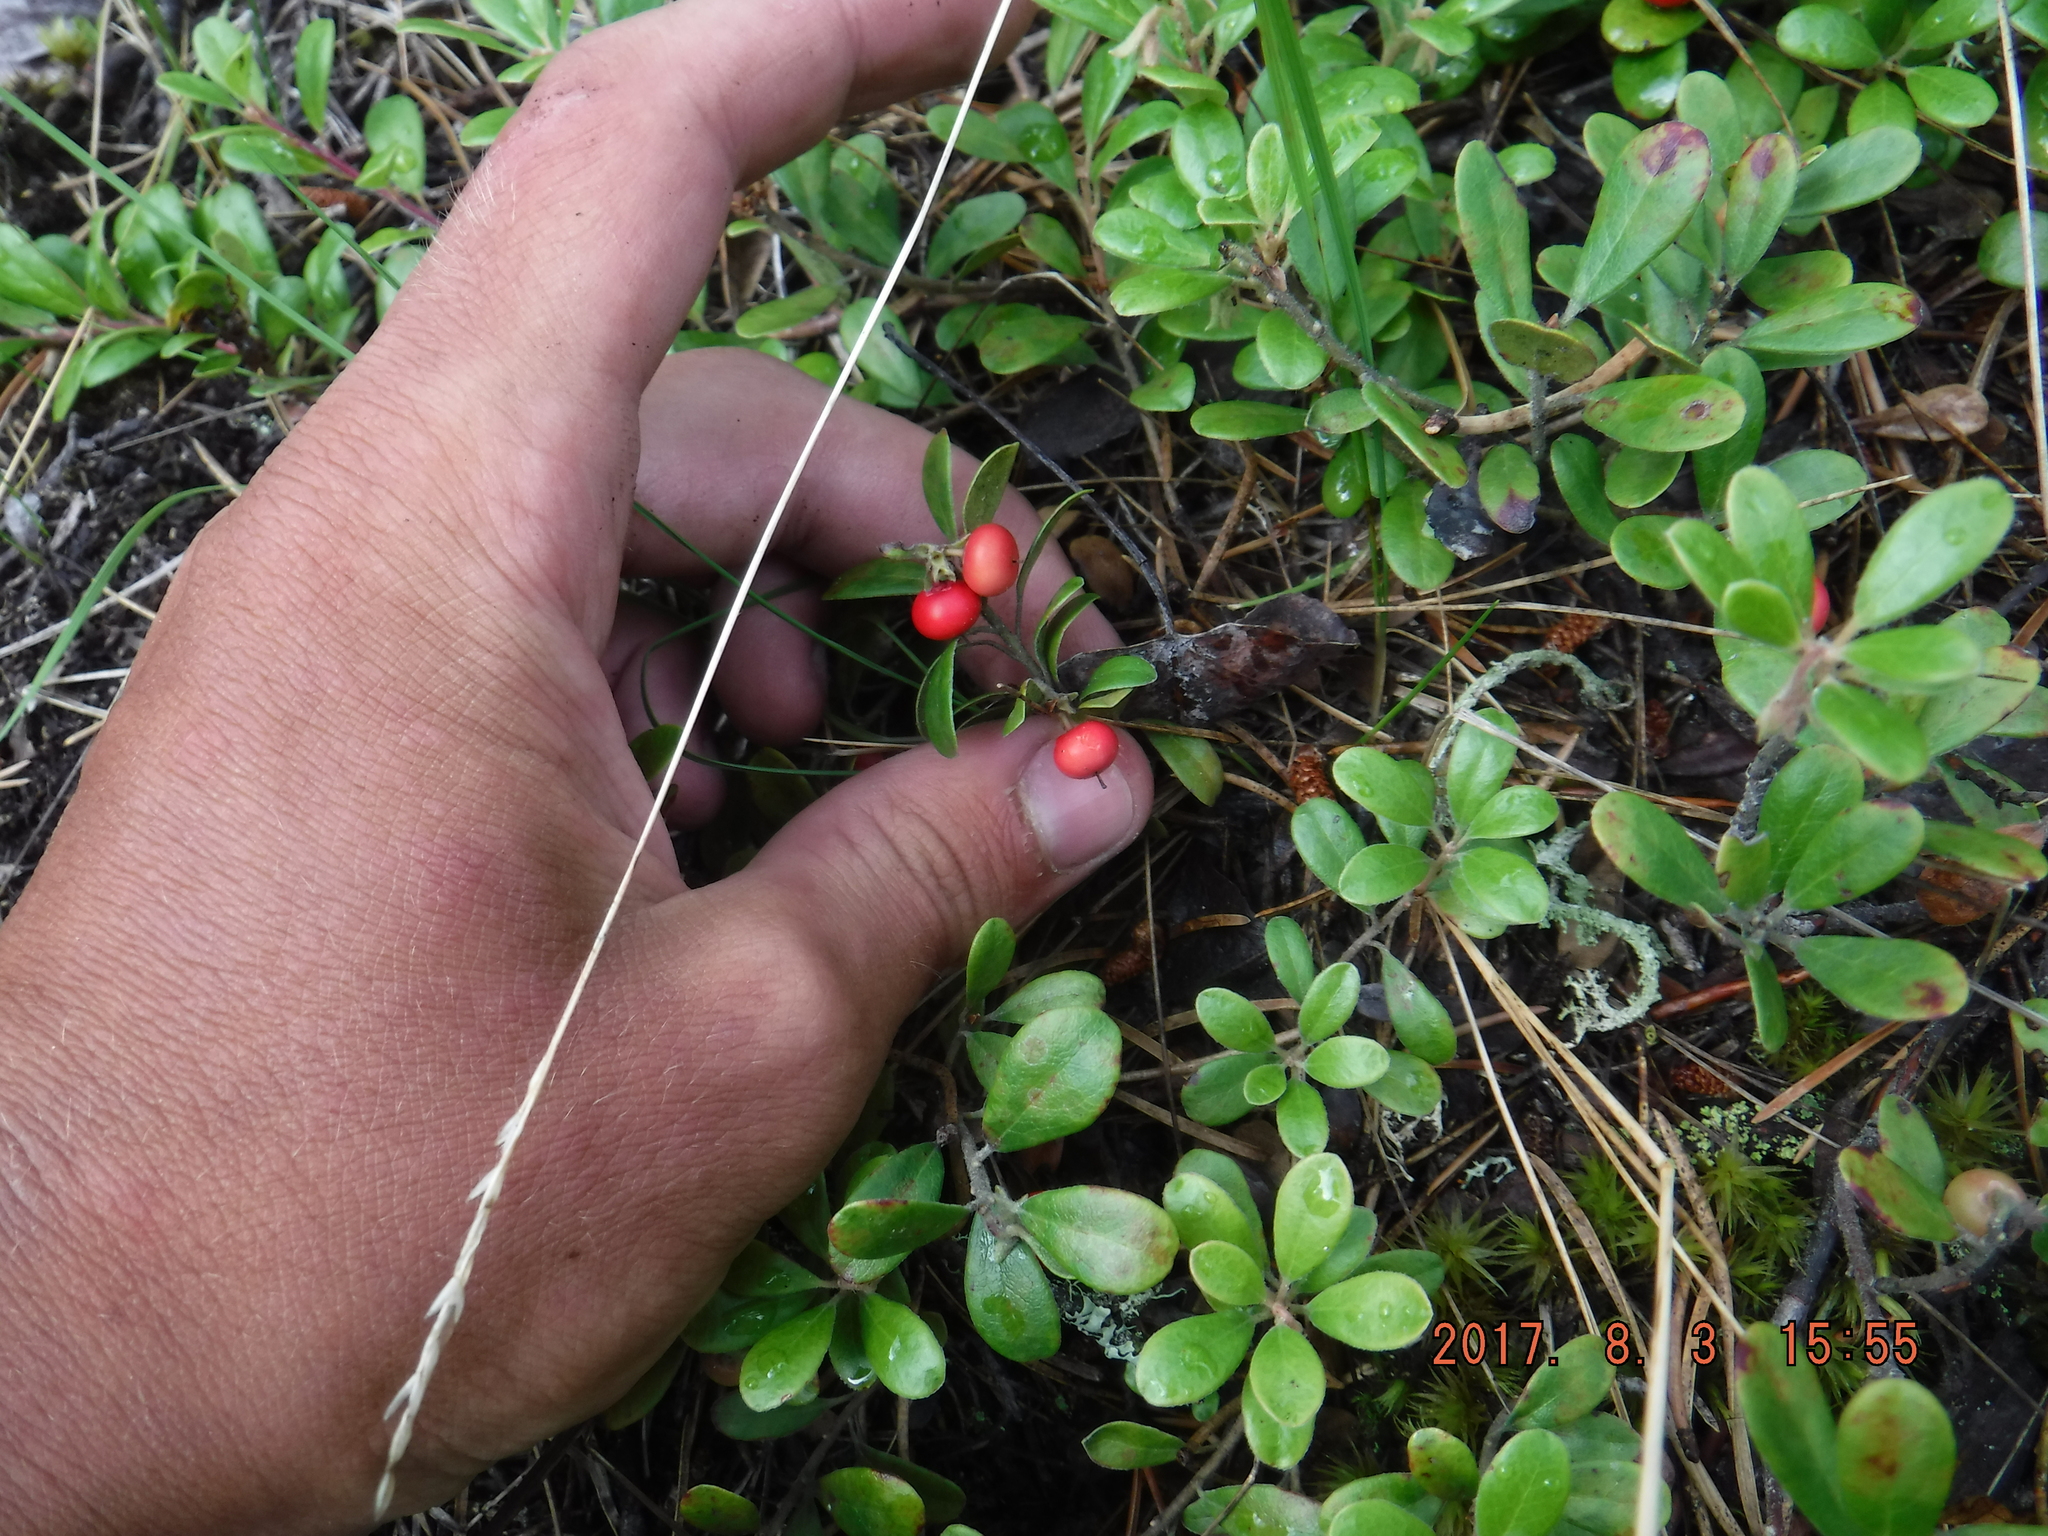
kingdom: Plantae
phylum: Tracheophyta
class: Magnoliopsida
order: Ericales
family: Ericaceae
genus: Arctostaphylos
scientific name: Arctostaphylos uva-ursi
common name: Bearberry
